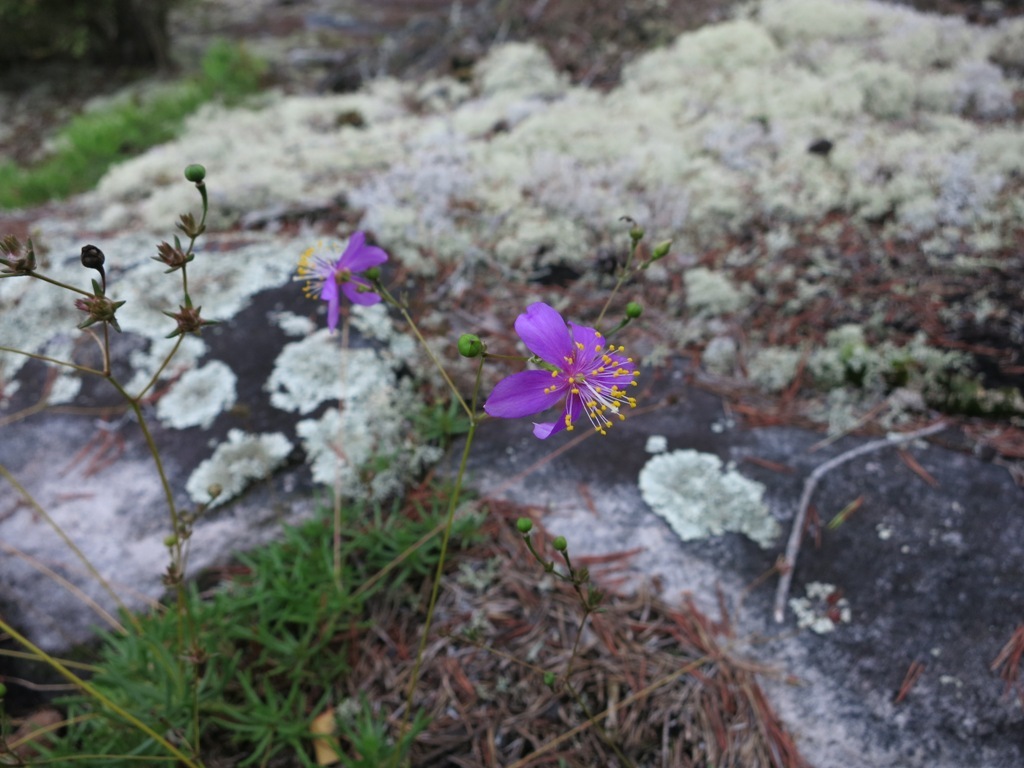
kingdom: Plantae
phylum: Tracheophyta
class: Magnoliopsida
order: Caryophyllales
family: Montiaceae
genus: Phemeranthus
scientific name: Phemeranthus mengesii
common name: Menges' fameflower
